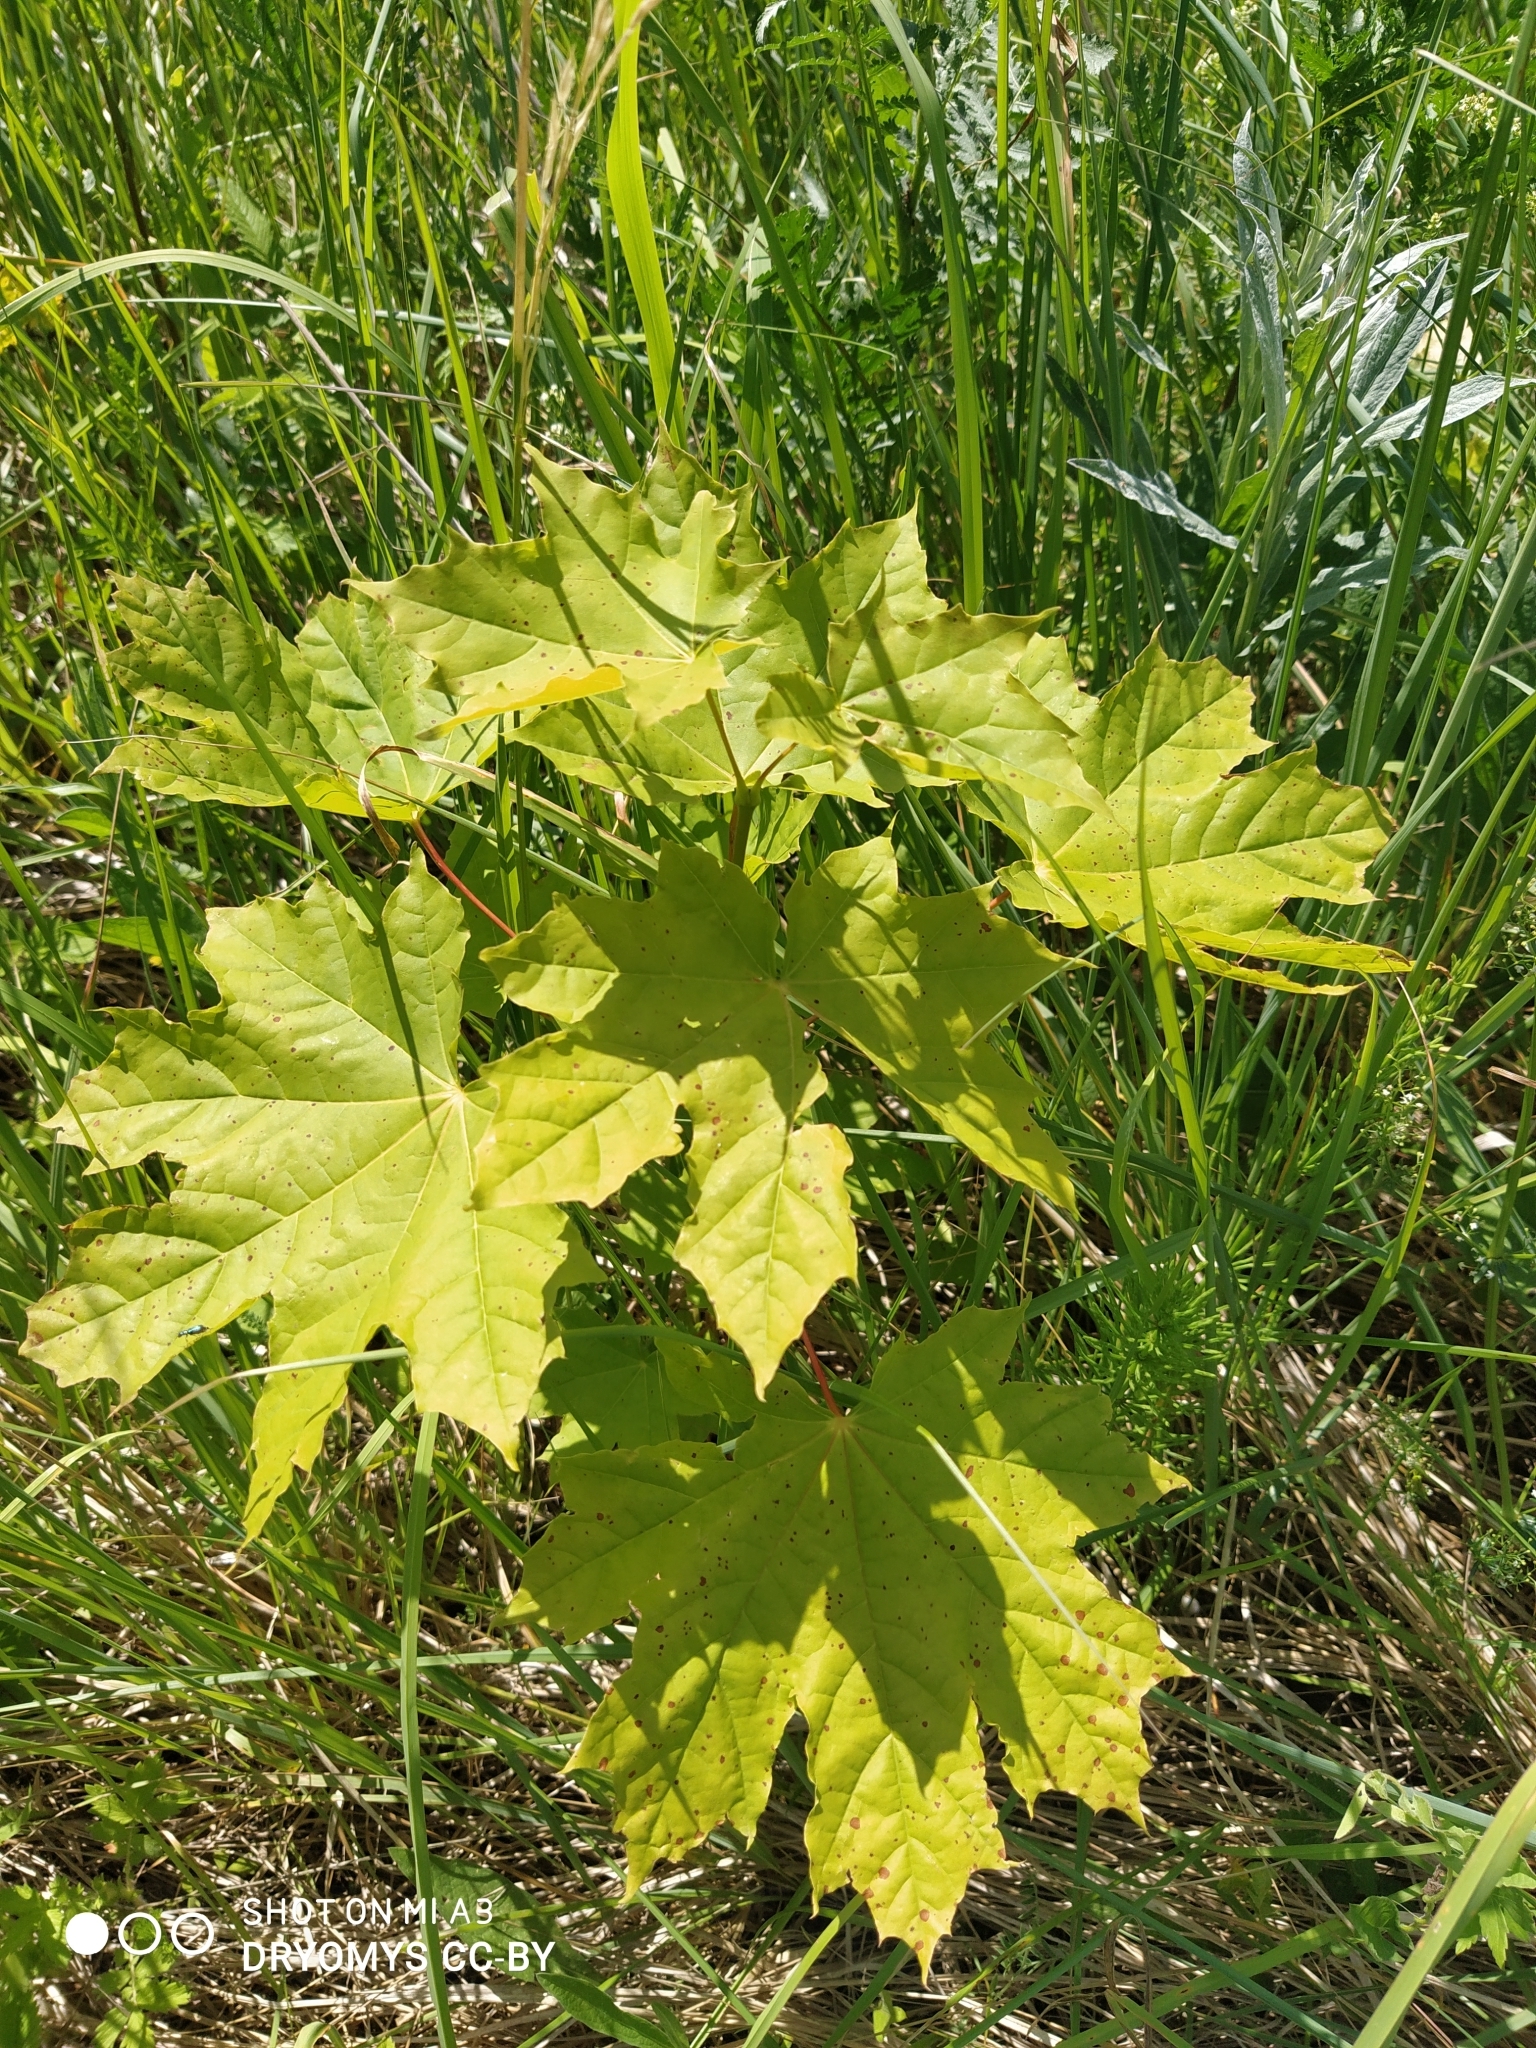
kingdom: Plantae
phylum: Tracheophyta
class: Magnoliopsida
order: Sapindales
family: Sapindaceae
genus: Acer
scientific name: Acer platanoides
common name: Norway maple
